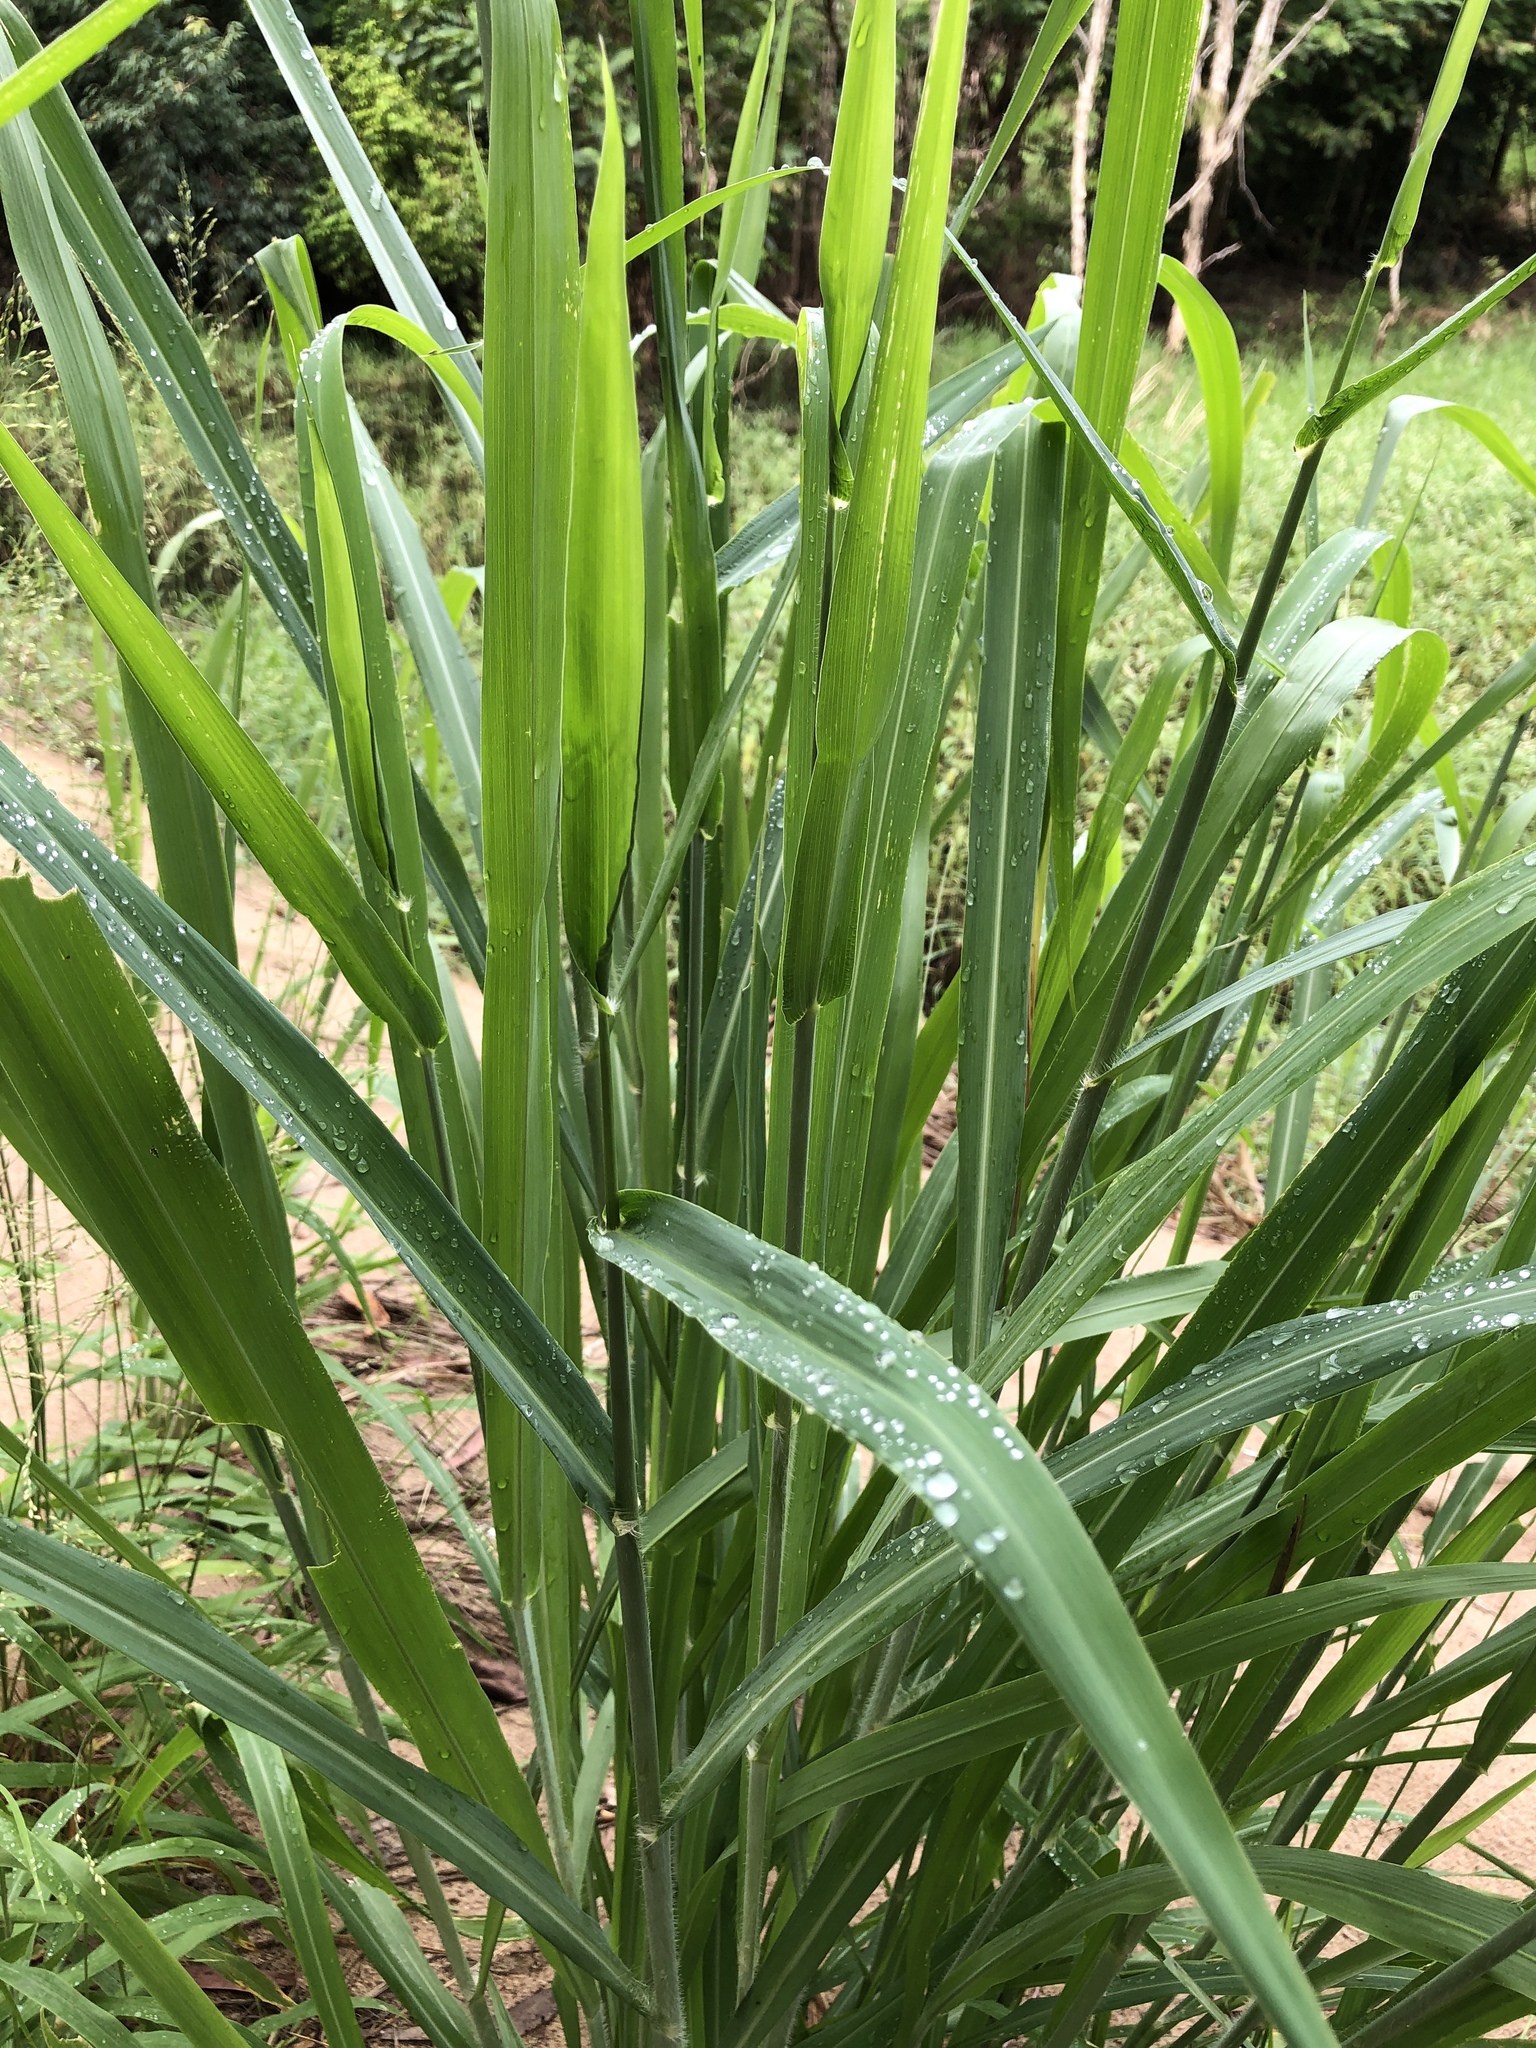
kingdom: Plantae
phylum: Tracheophyta
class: Liliopsida
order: Poales
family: Poaceae
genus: Megathyrsus
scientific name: Megathyrsus maximus
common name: Guineagrass
